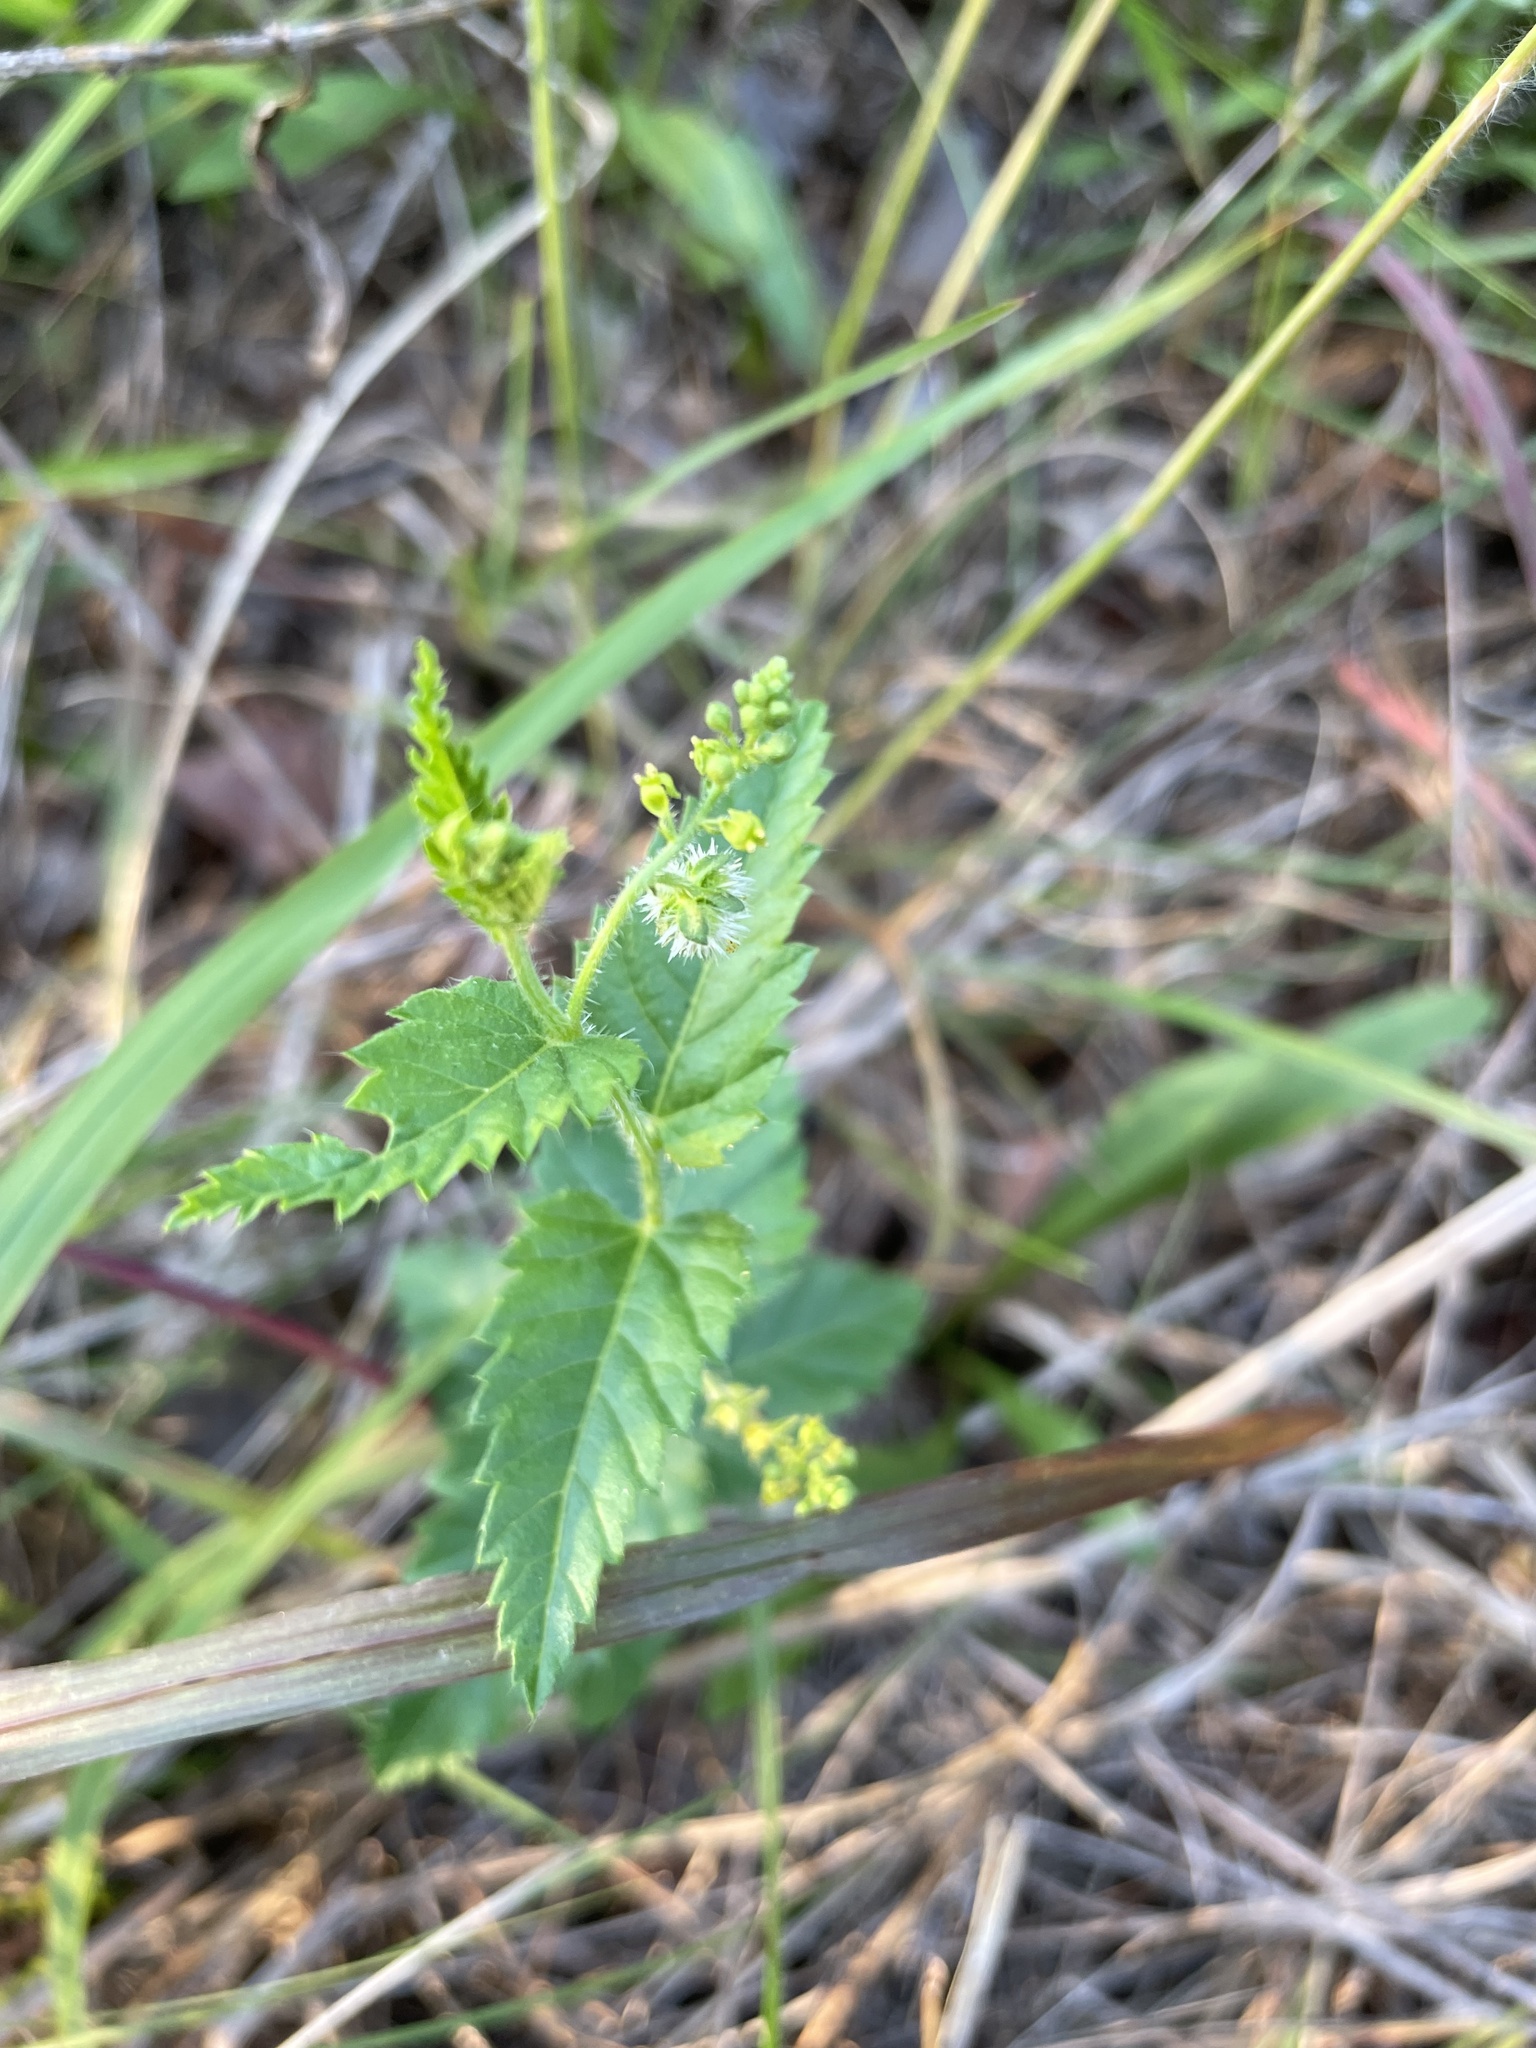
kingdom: Plantae
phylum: Tracheophyta
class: Magnoliopsida
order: Malpighiales
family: Euphorbiaceae
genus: Tragia
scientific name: Tragia urticifolia
